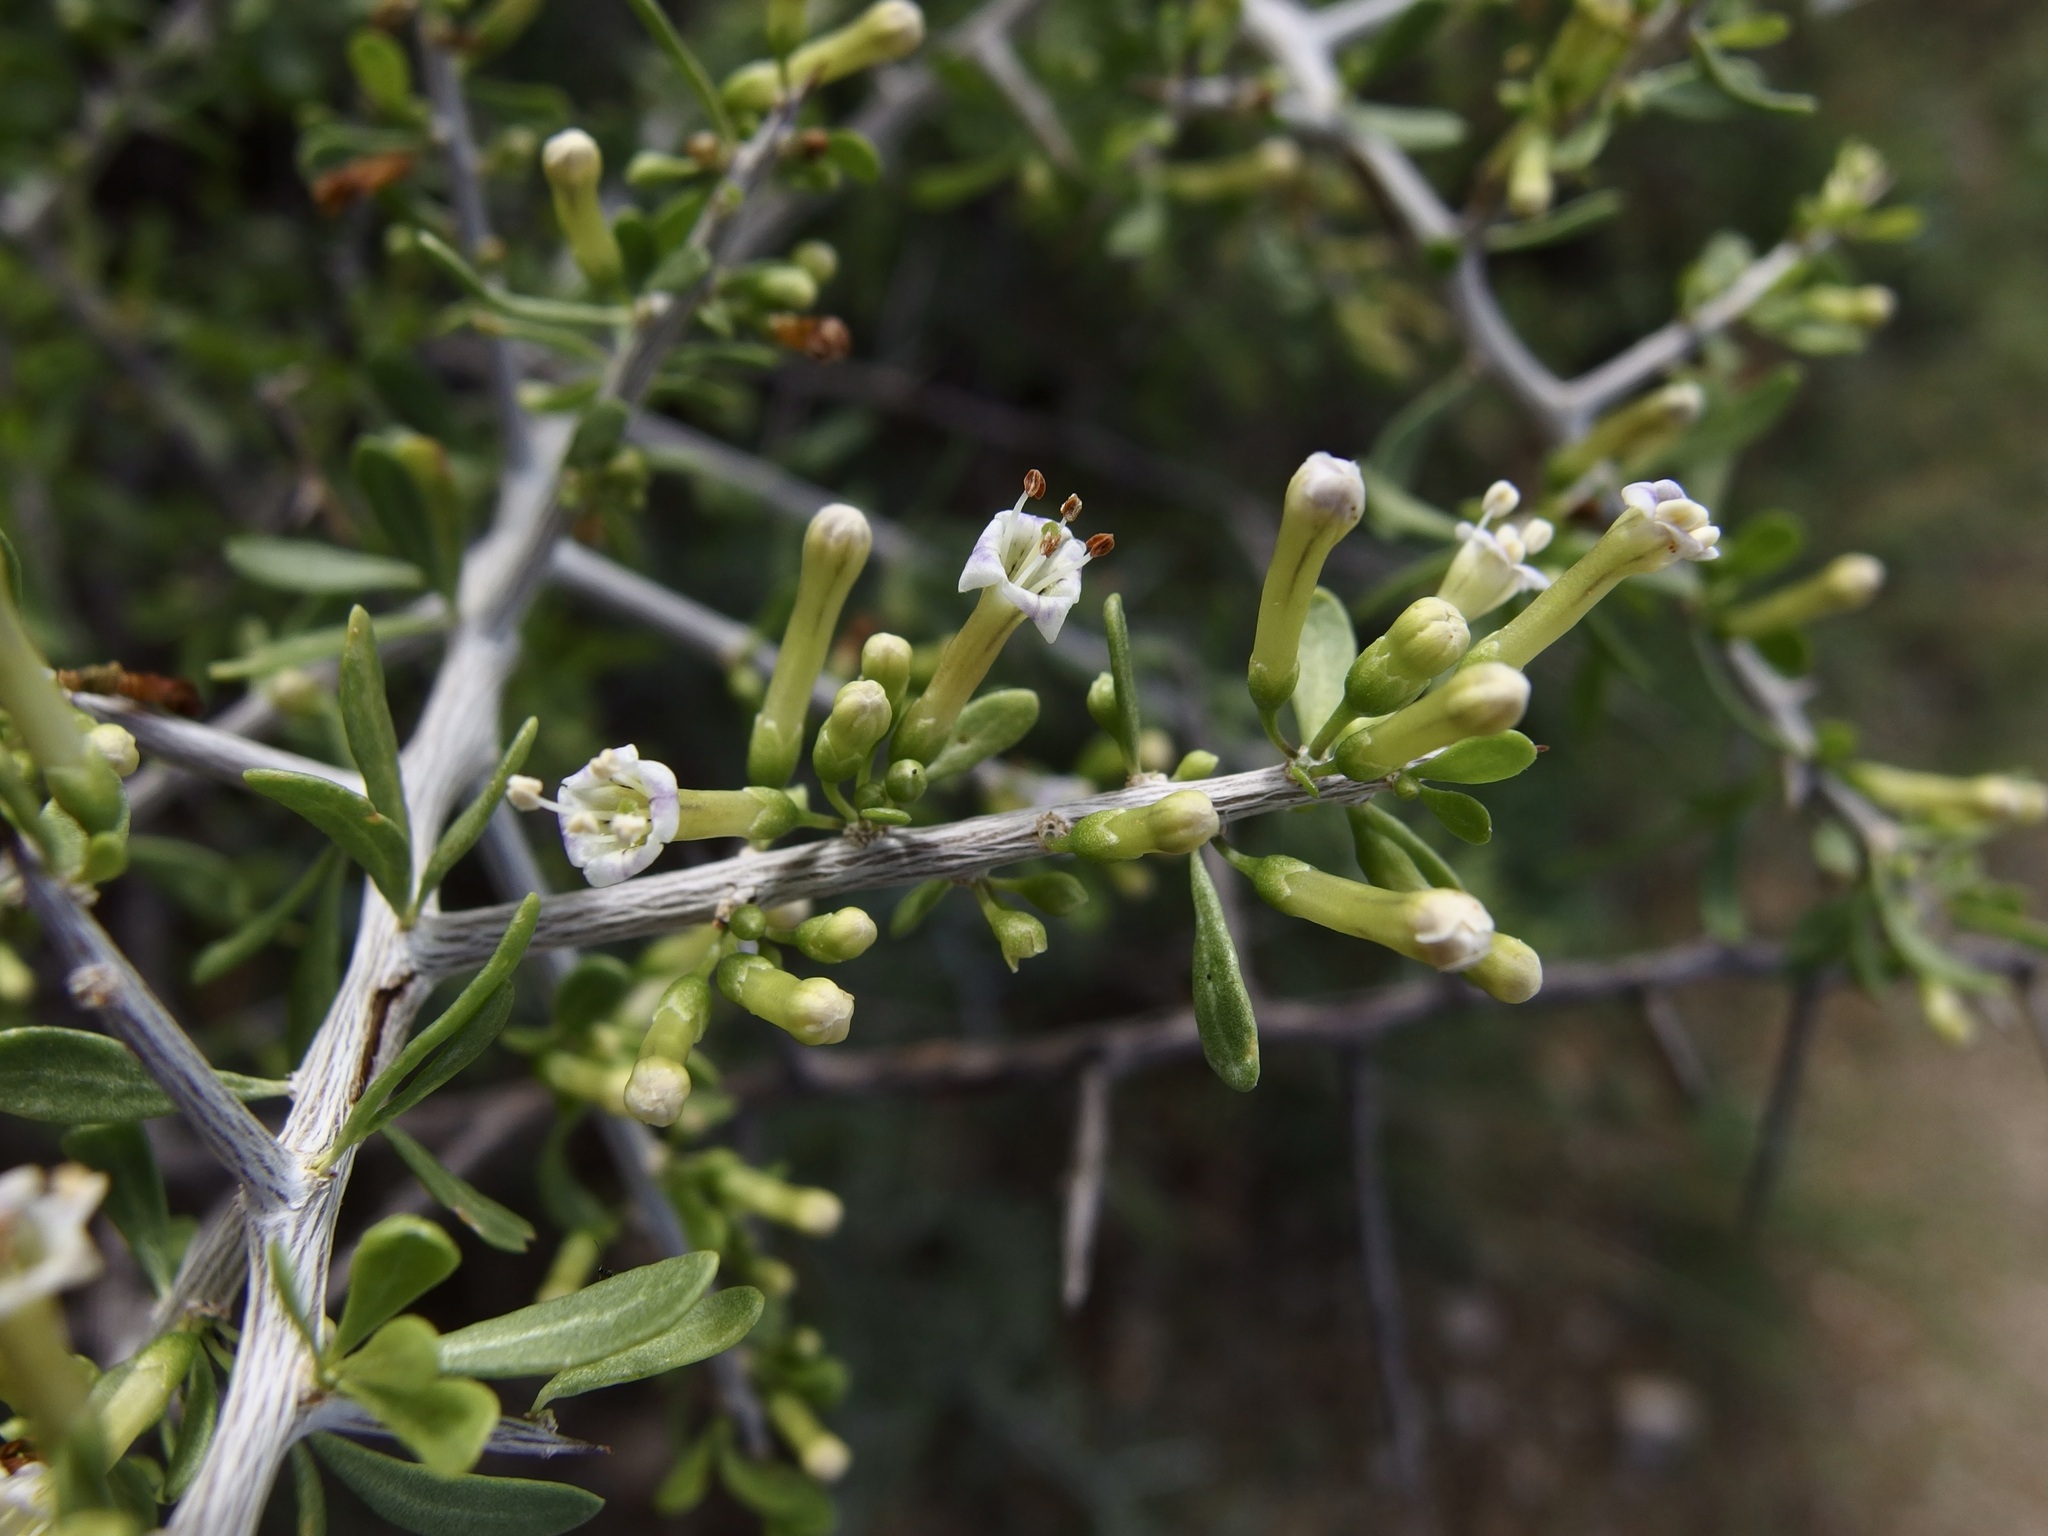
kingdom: Plantae
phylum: Tracheophyta
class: Magnoliopsida
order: Solanales
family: Solanaceae
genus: Lycium
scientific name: Lycium andersonii
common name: Water-jacket
